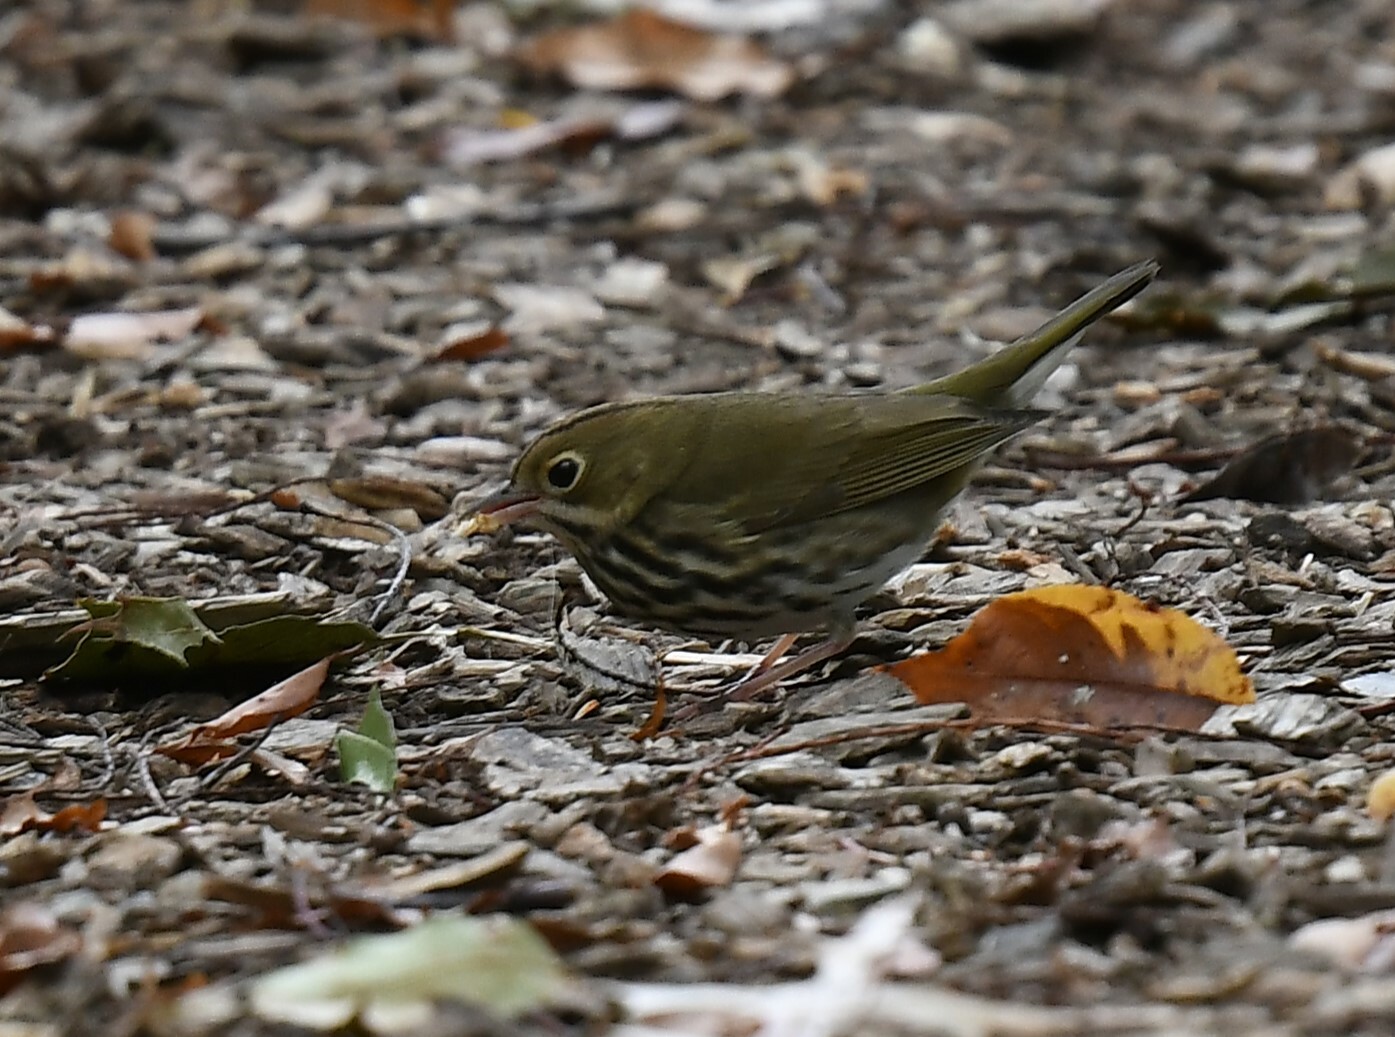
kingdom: Animalia
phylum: Chordata
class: Aves
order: Passeriformes
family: Parulidae
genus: Seiurus
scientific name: Seiurus aurocapilla
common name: Ovenbird
